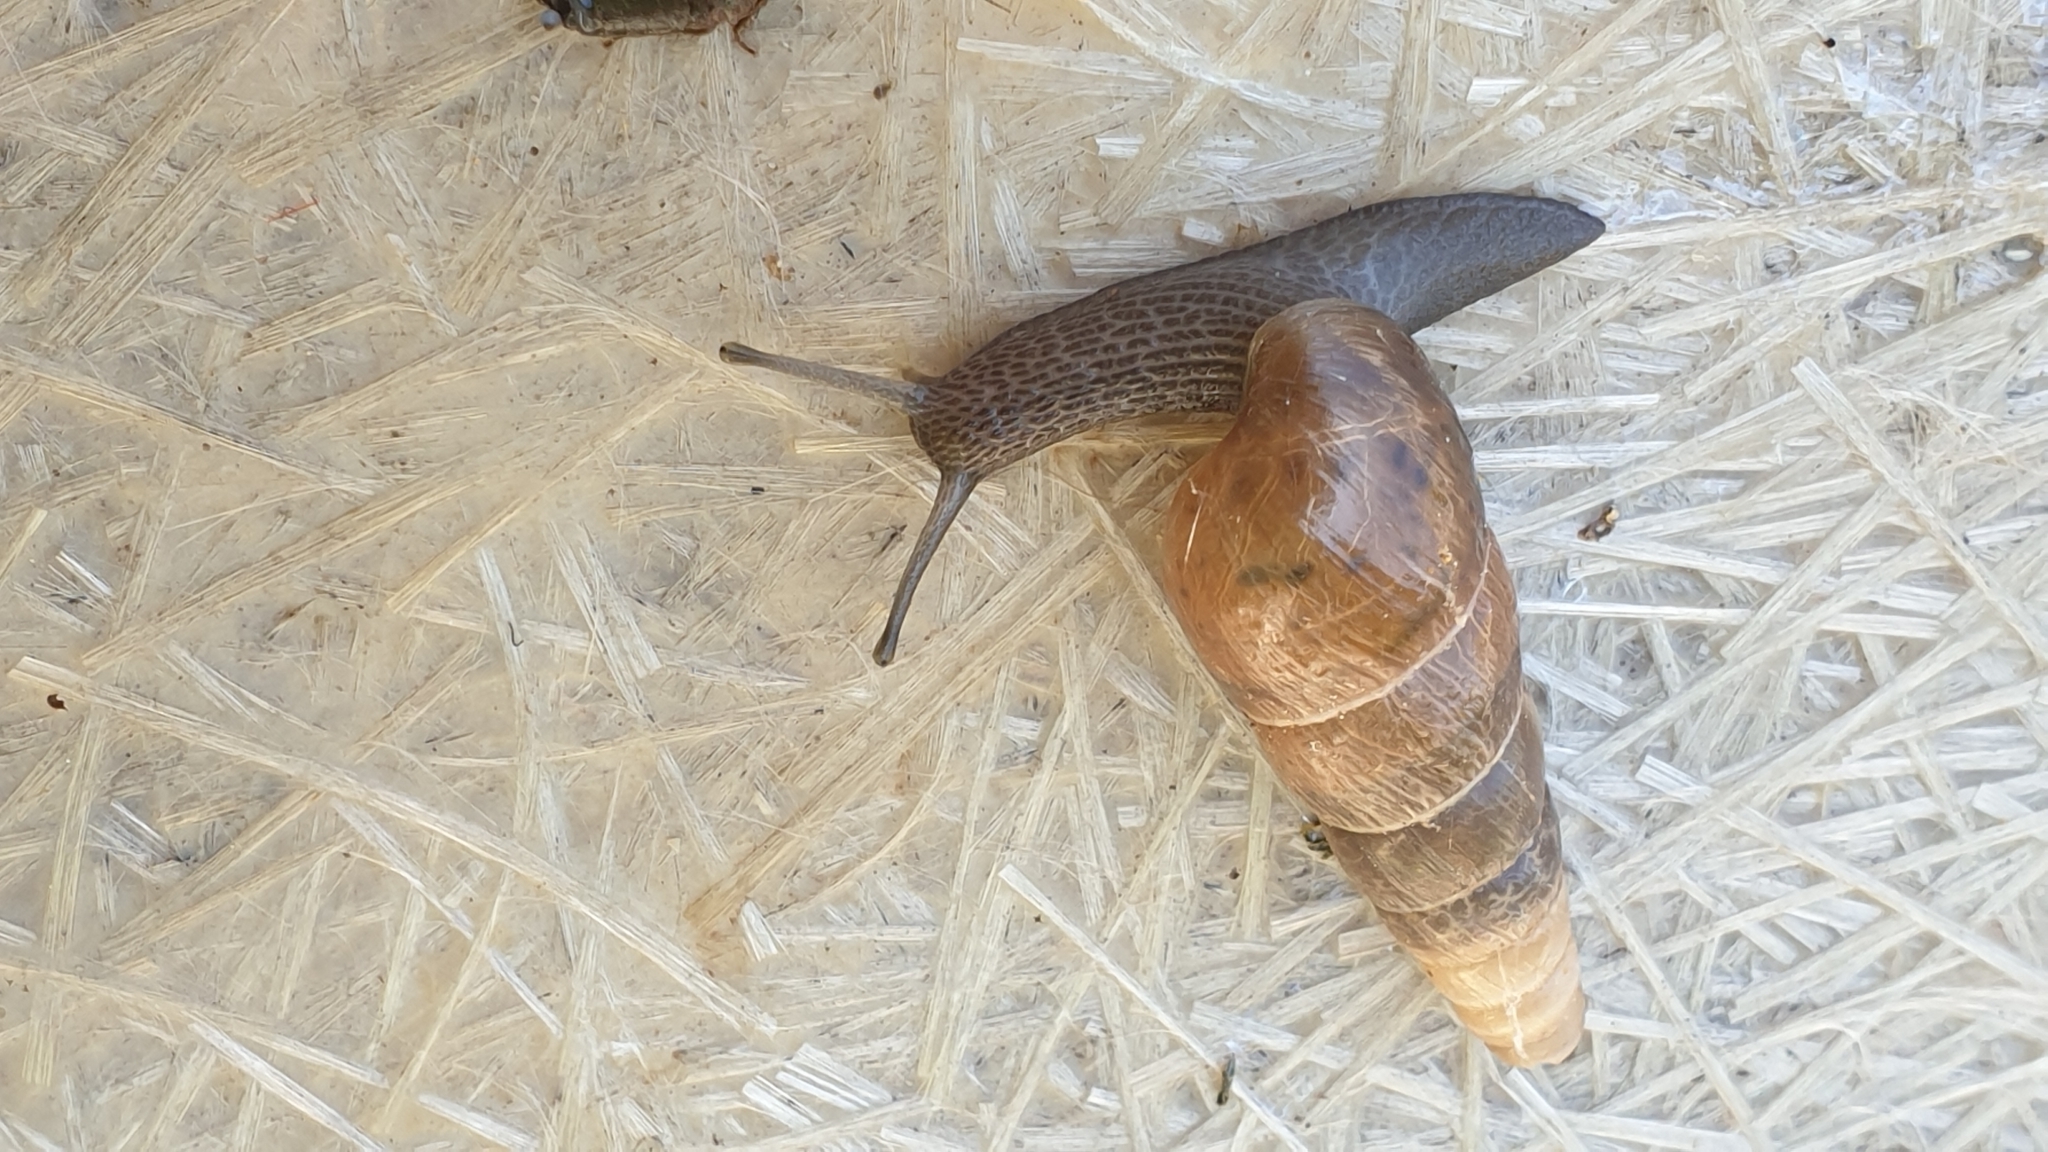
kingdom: Animalia
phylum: Mollusca
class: Gastropoda
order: Stylommatophora
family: Achatinidae
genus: Rumina
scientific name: Rumina decollata
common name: Decollate snail
